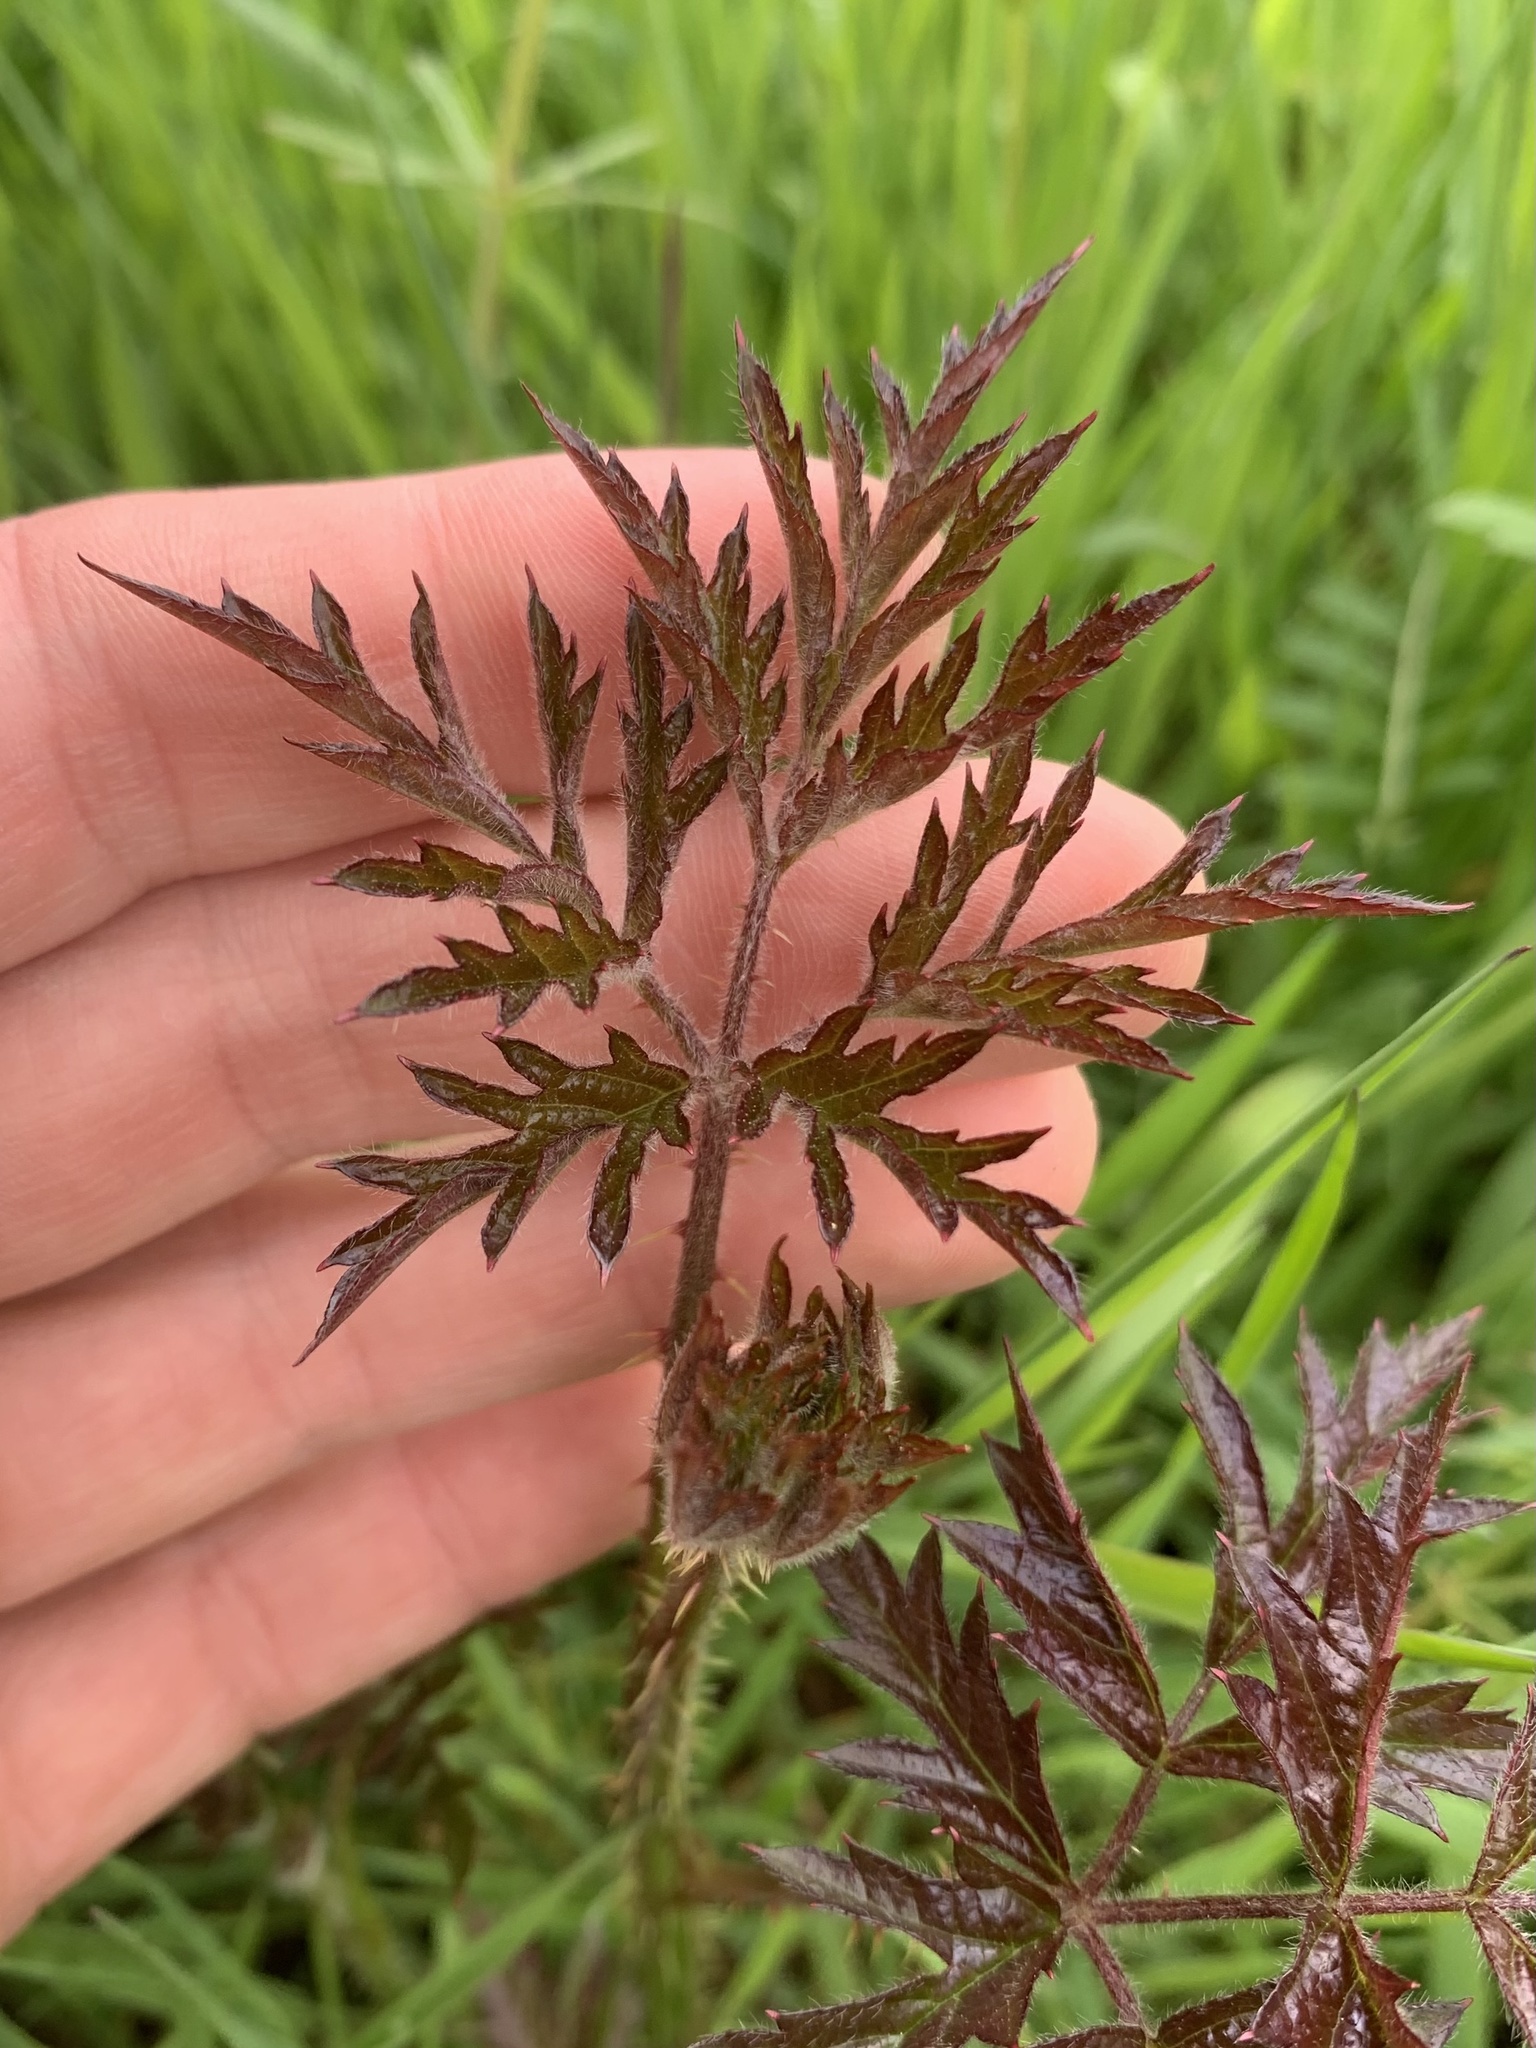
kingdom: Plantae
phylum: Tracheophyta
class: Magnoliopsida
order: Rosales
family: Rosaceae
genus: Rubus
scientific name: Rubus laciniatus
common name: Evergreen blackberry
